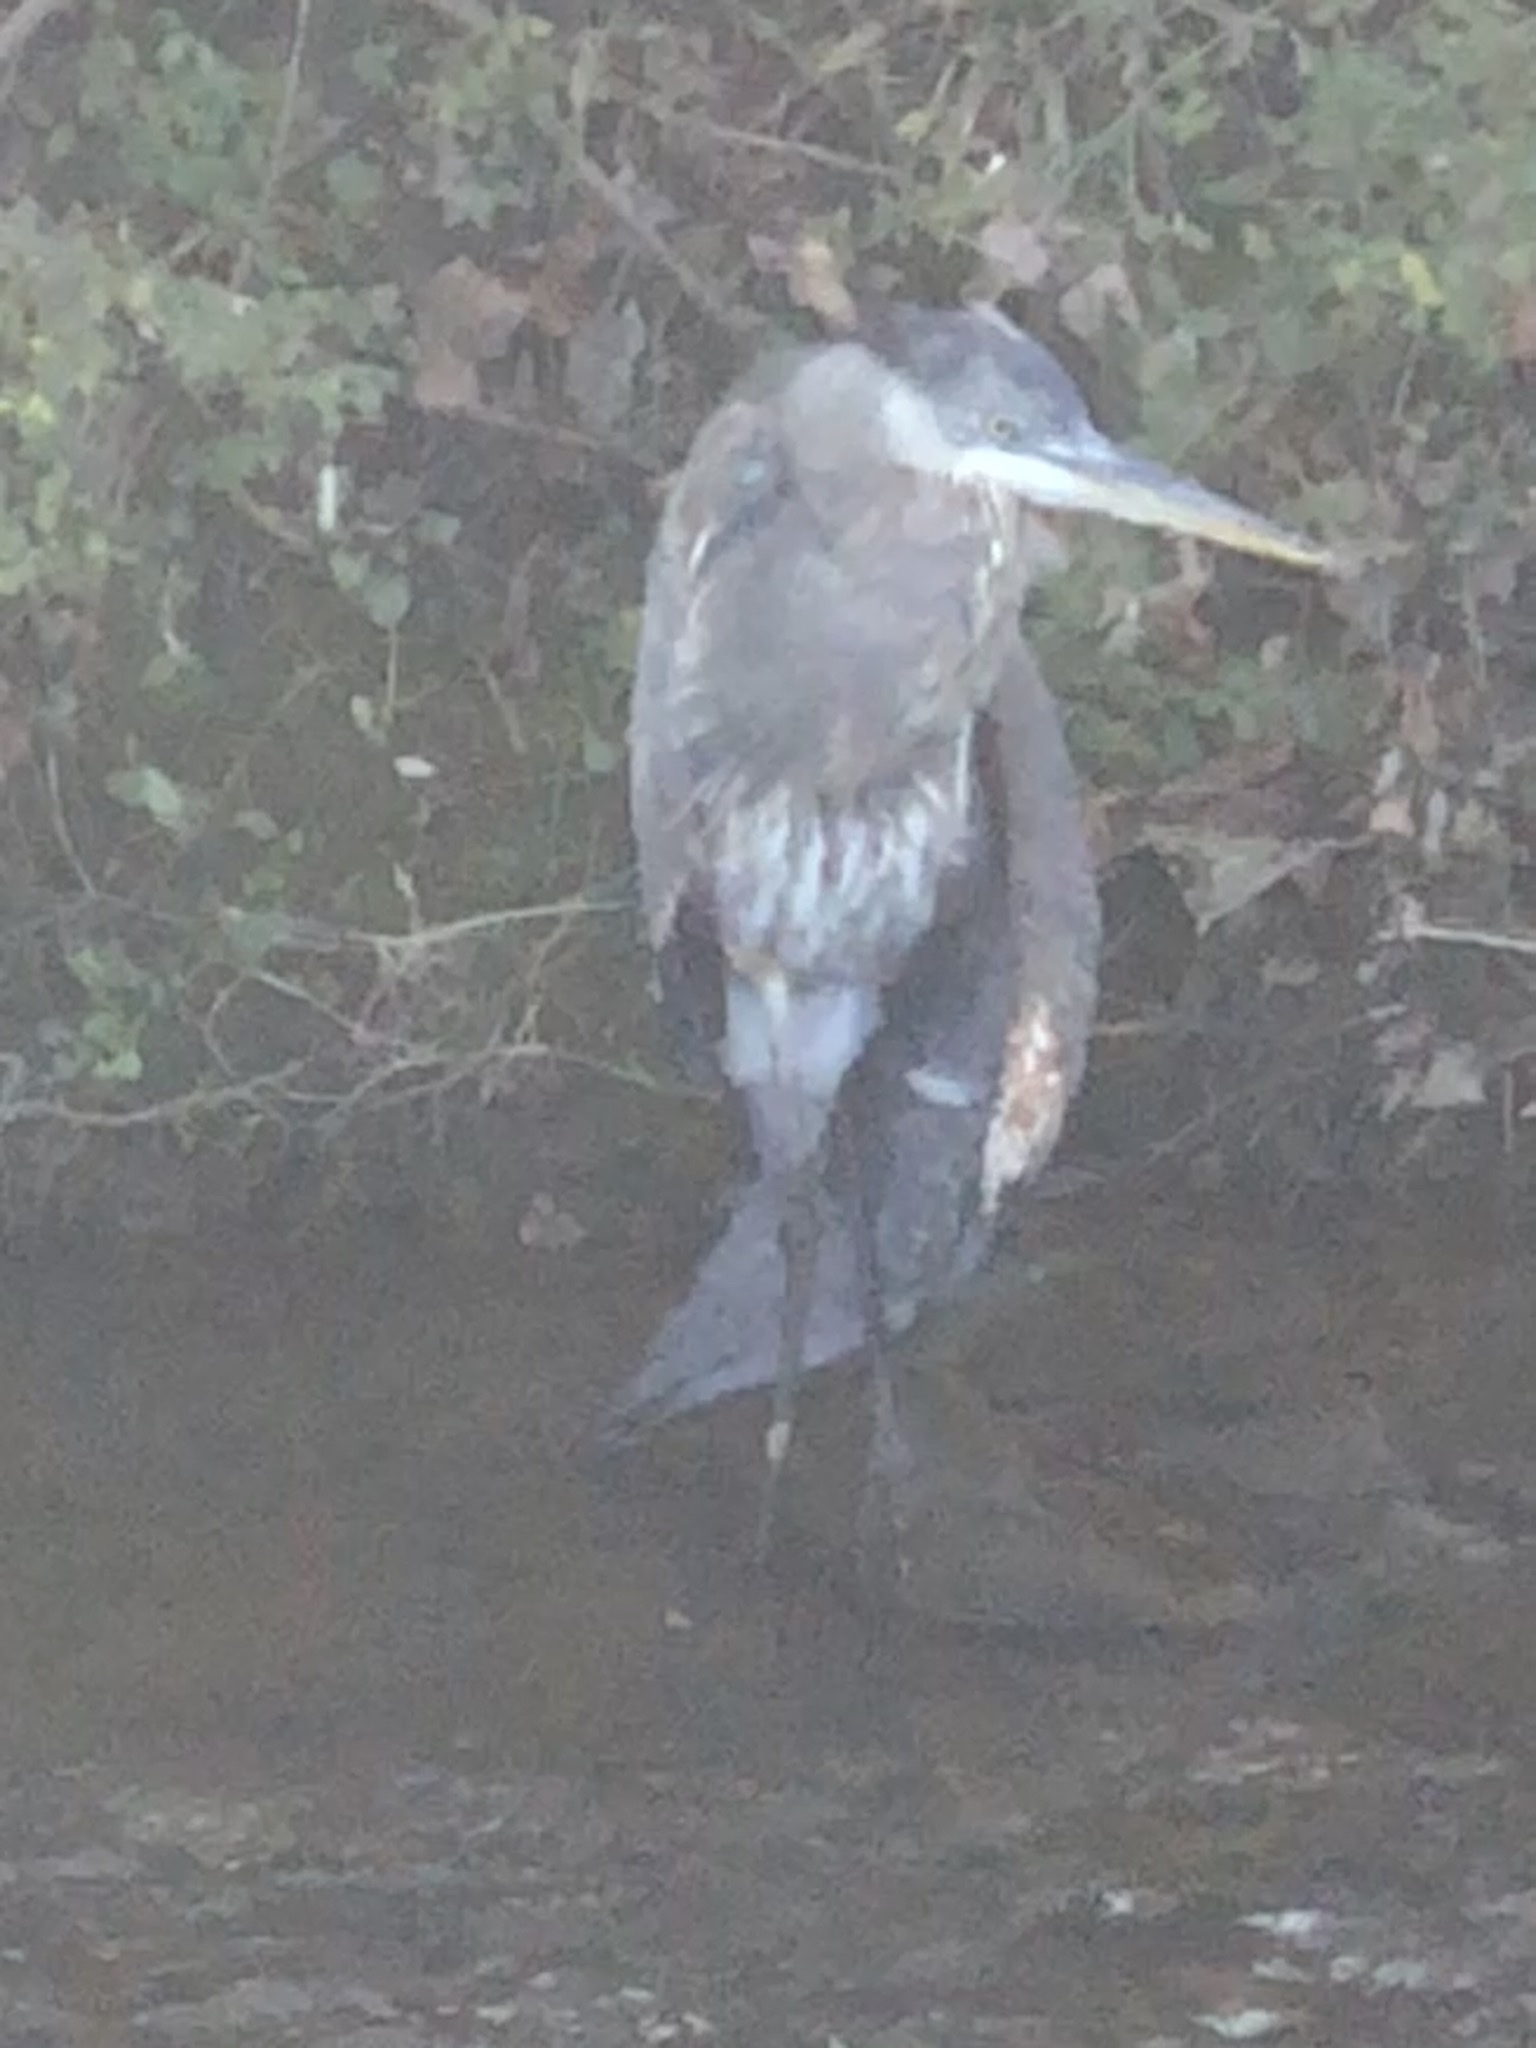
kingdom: Animalia
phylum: Chordata
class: Aves
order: Pelecaniformes
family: Ardeidae
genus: Ardea
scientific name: Ardea herodias
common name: Great blue heron
